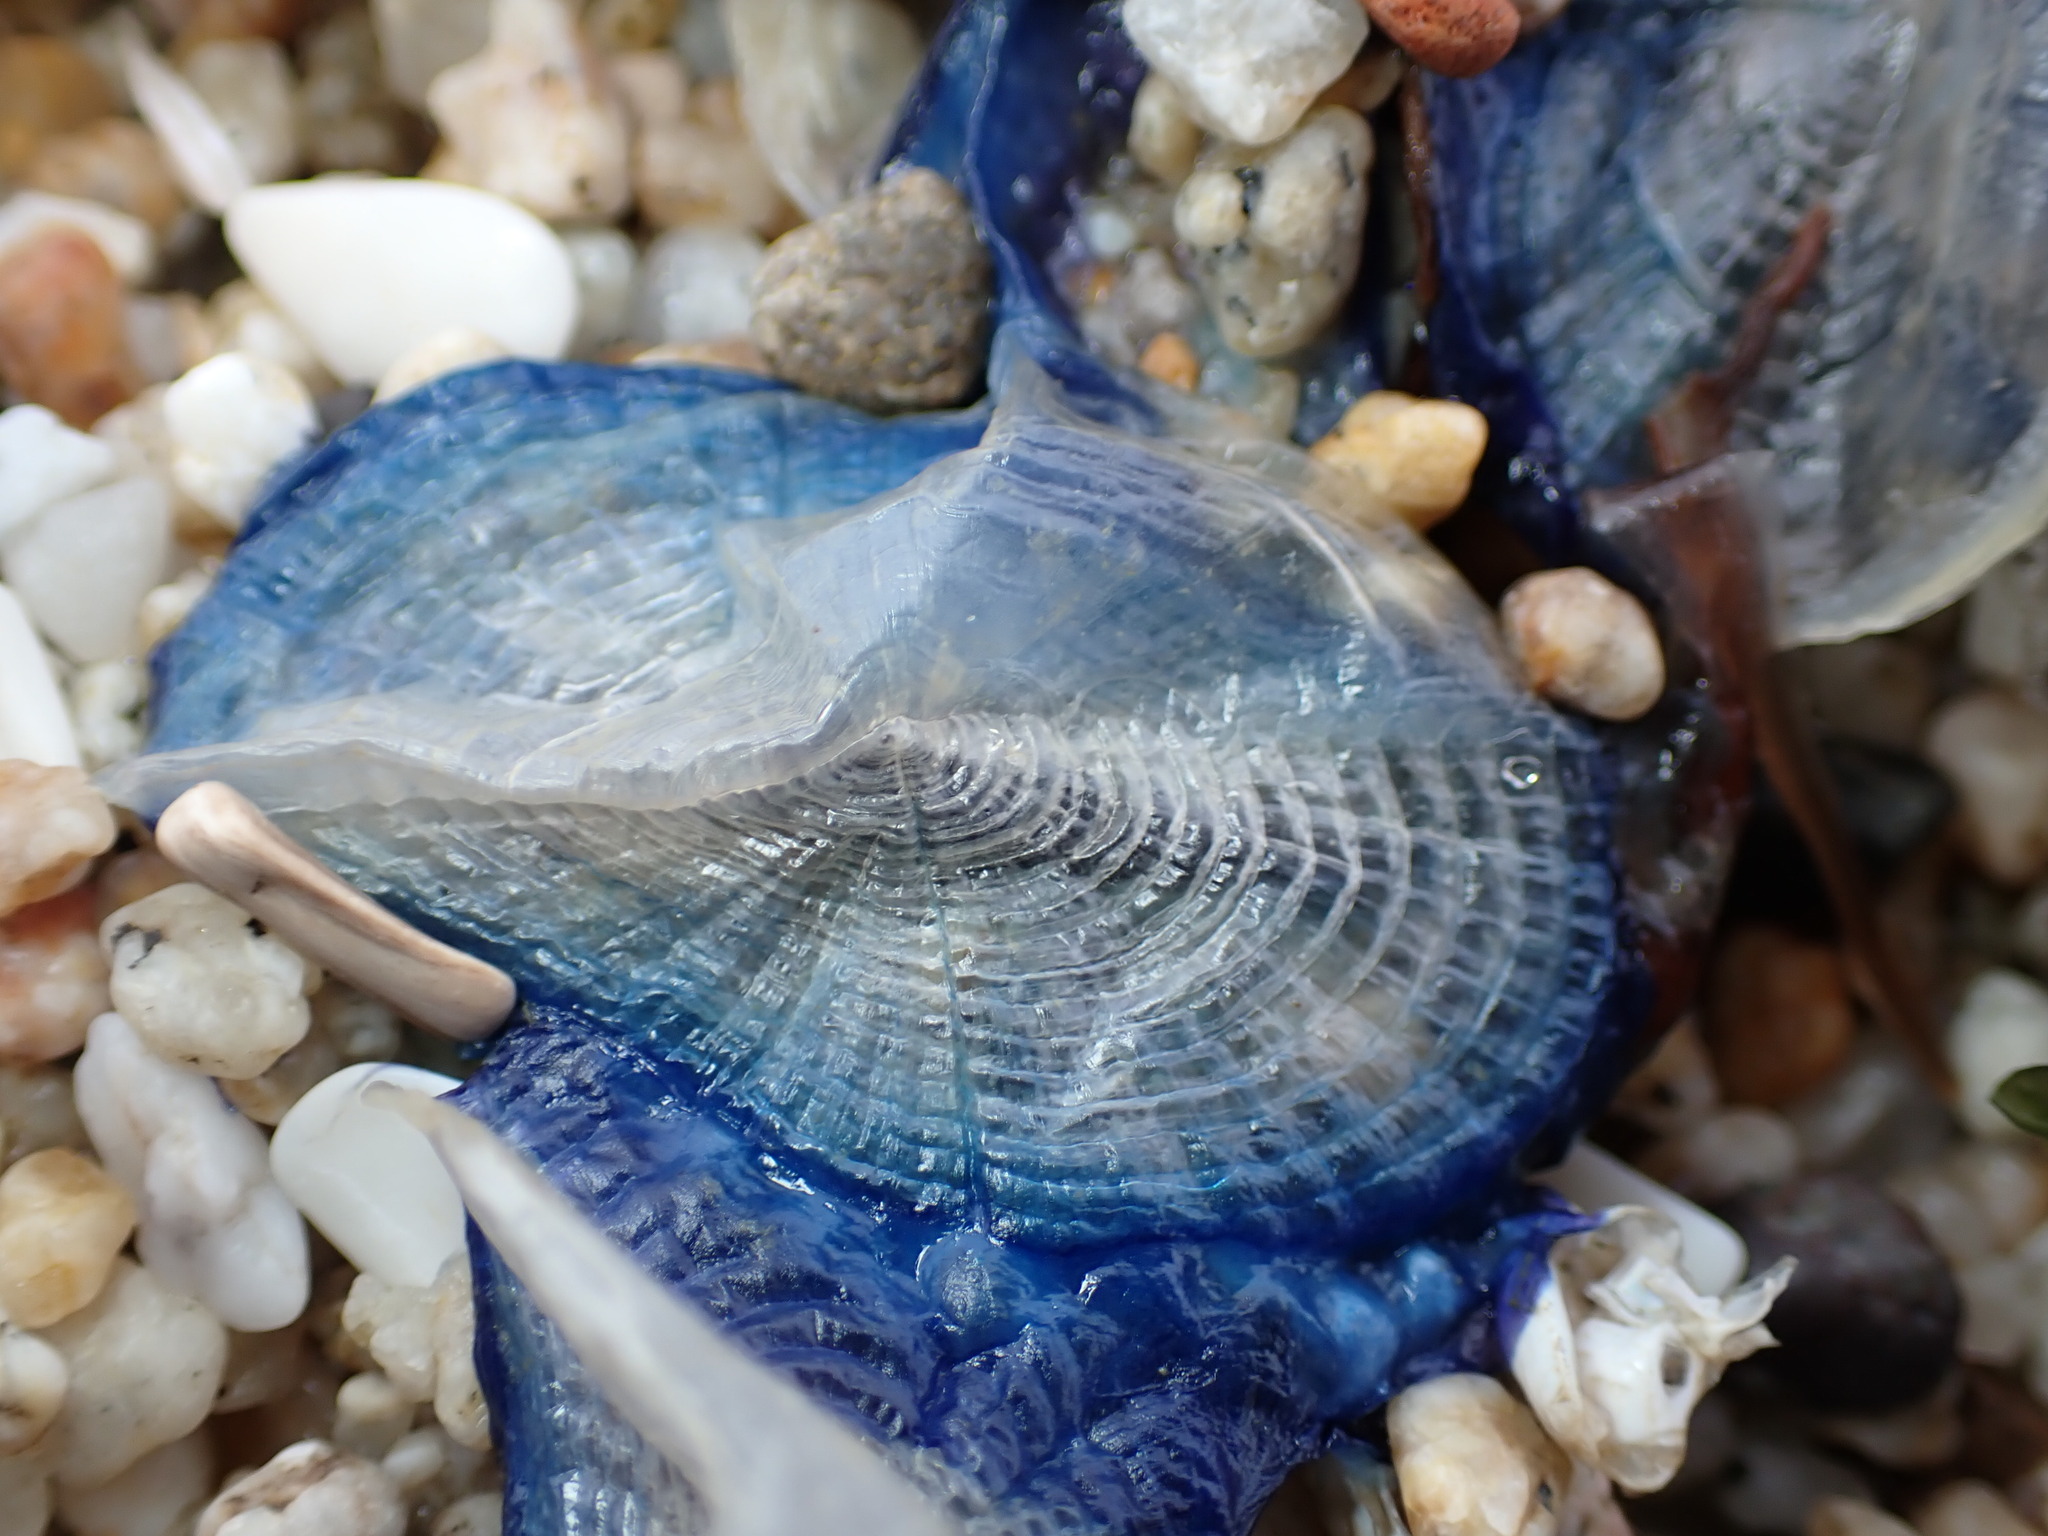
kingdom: Animalia
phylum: Cnidaria
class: Hydrozoa
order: Anthoathecata
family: Porpitidae
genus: Velella
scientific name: Velella velella
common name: By-the-wind-sailor
